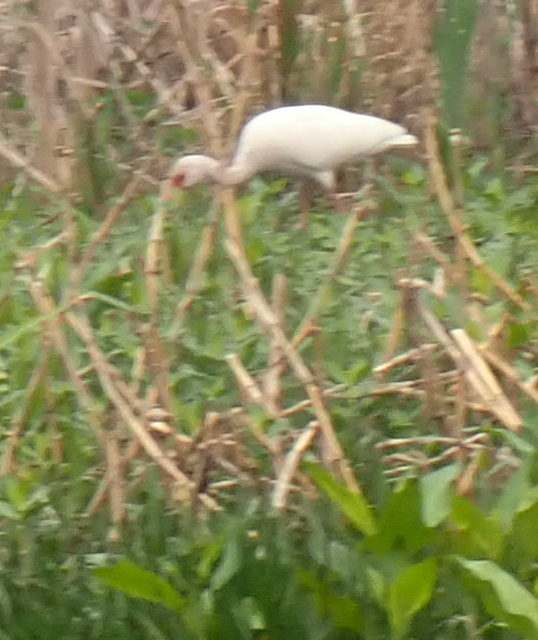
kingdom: Animalia
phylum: Chordata
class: Aves
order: Pelecaniformes
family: Threskiornithidae
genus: Eudocimus
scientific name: Eudocimus albus
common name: White ibis
